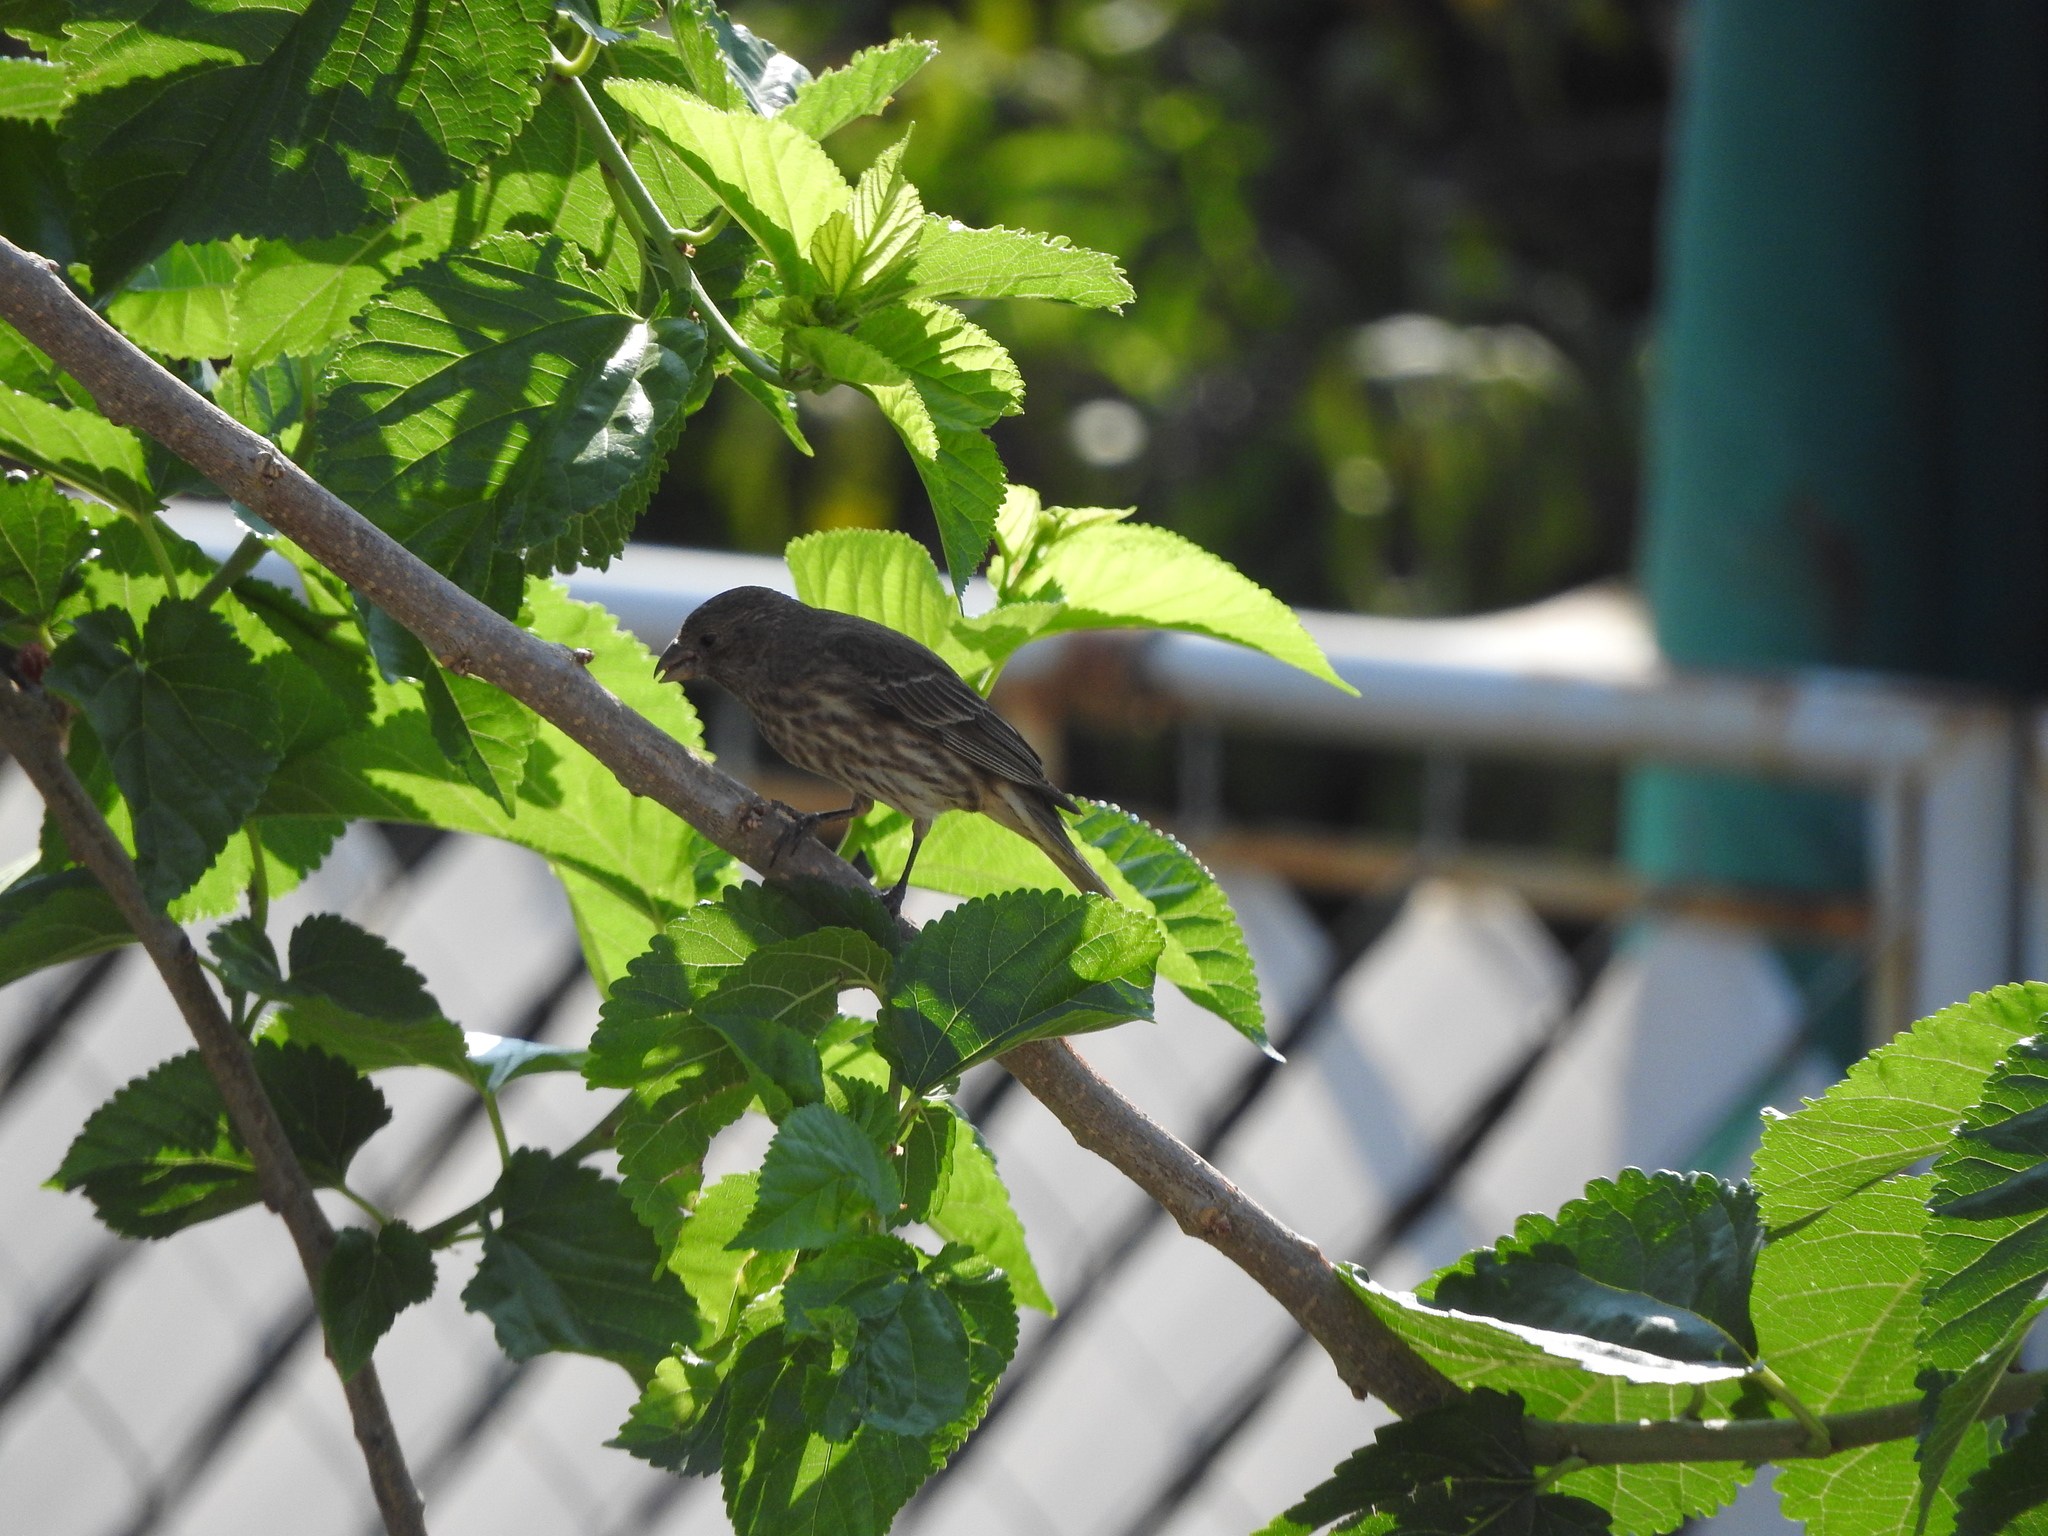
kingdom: Animalia
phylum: Chordata
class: Aves
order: Passeriformes
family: Fringillidae
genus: Haemorhous
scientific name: Haemorhous mexicanus
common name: House finch
